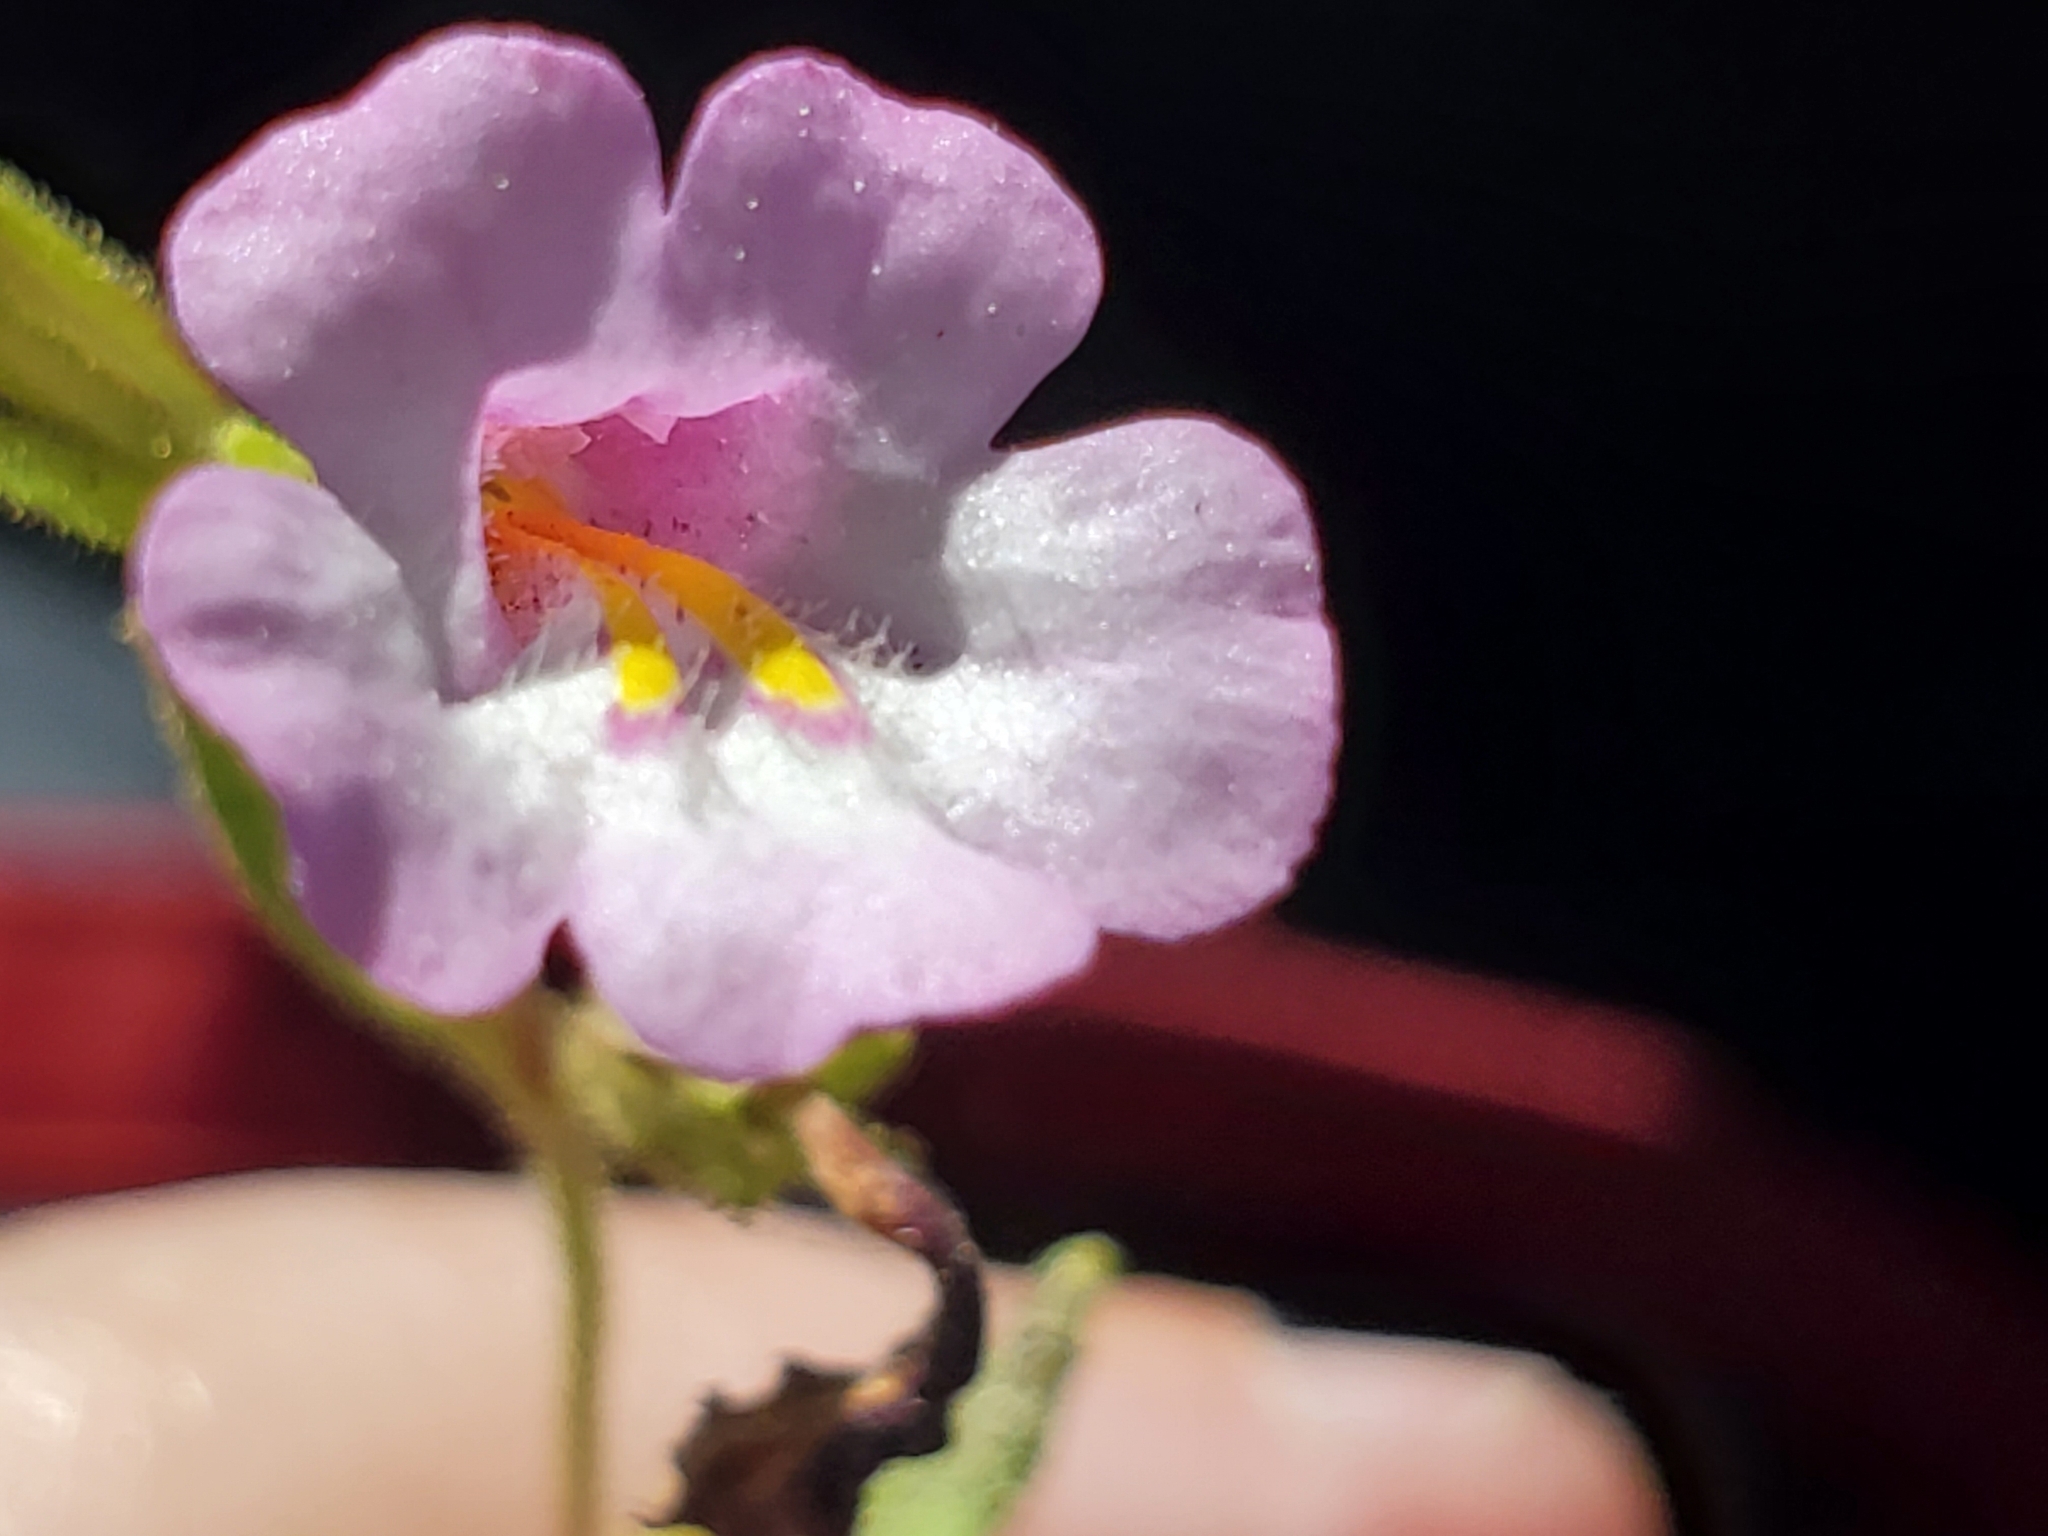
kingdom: Plantae
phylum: Tracheophyta
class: Magnoliopsida
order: Lamiales
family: Phrymaceae
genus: Diplacus
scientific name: Diplacus torreyi
